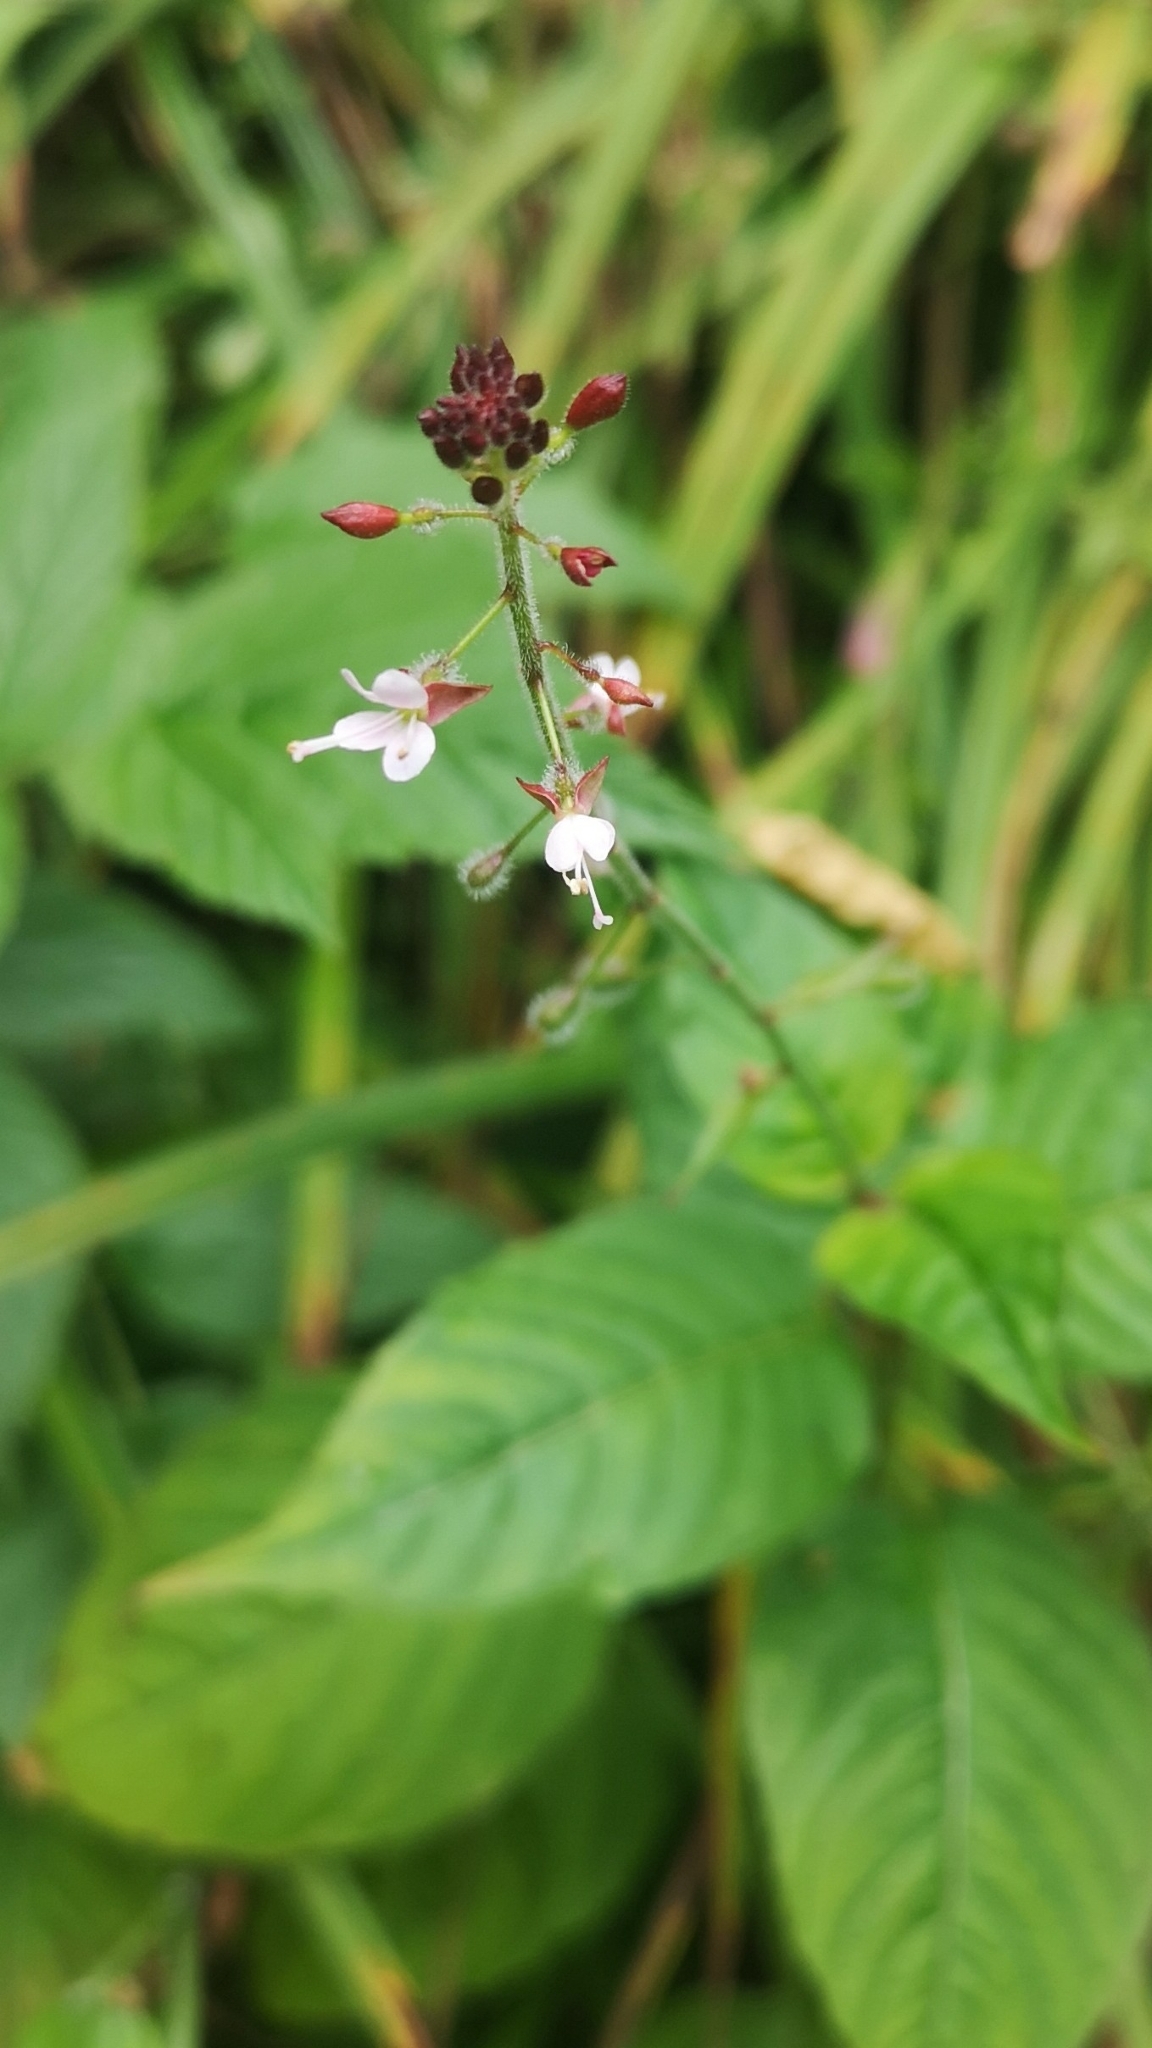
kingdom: Plantae
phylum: Tracheophyta
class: Magnoliopsida
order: Myrtales
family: Onagraceae
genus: Circaea
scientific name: Circaea lutetiana
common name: Enchanter's-nightshade
